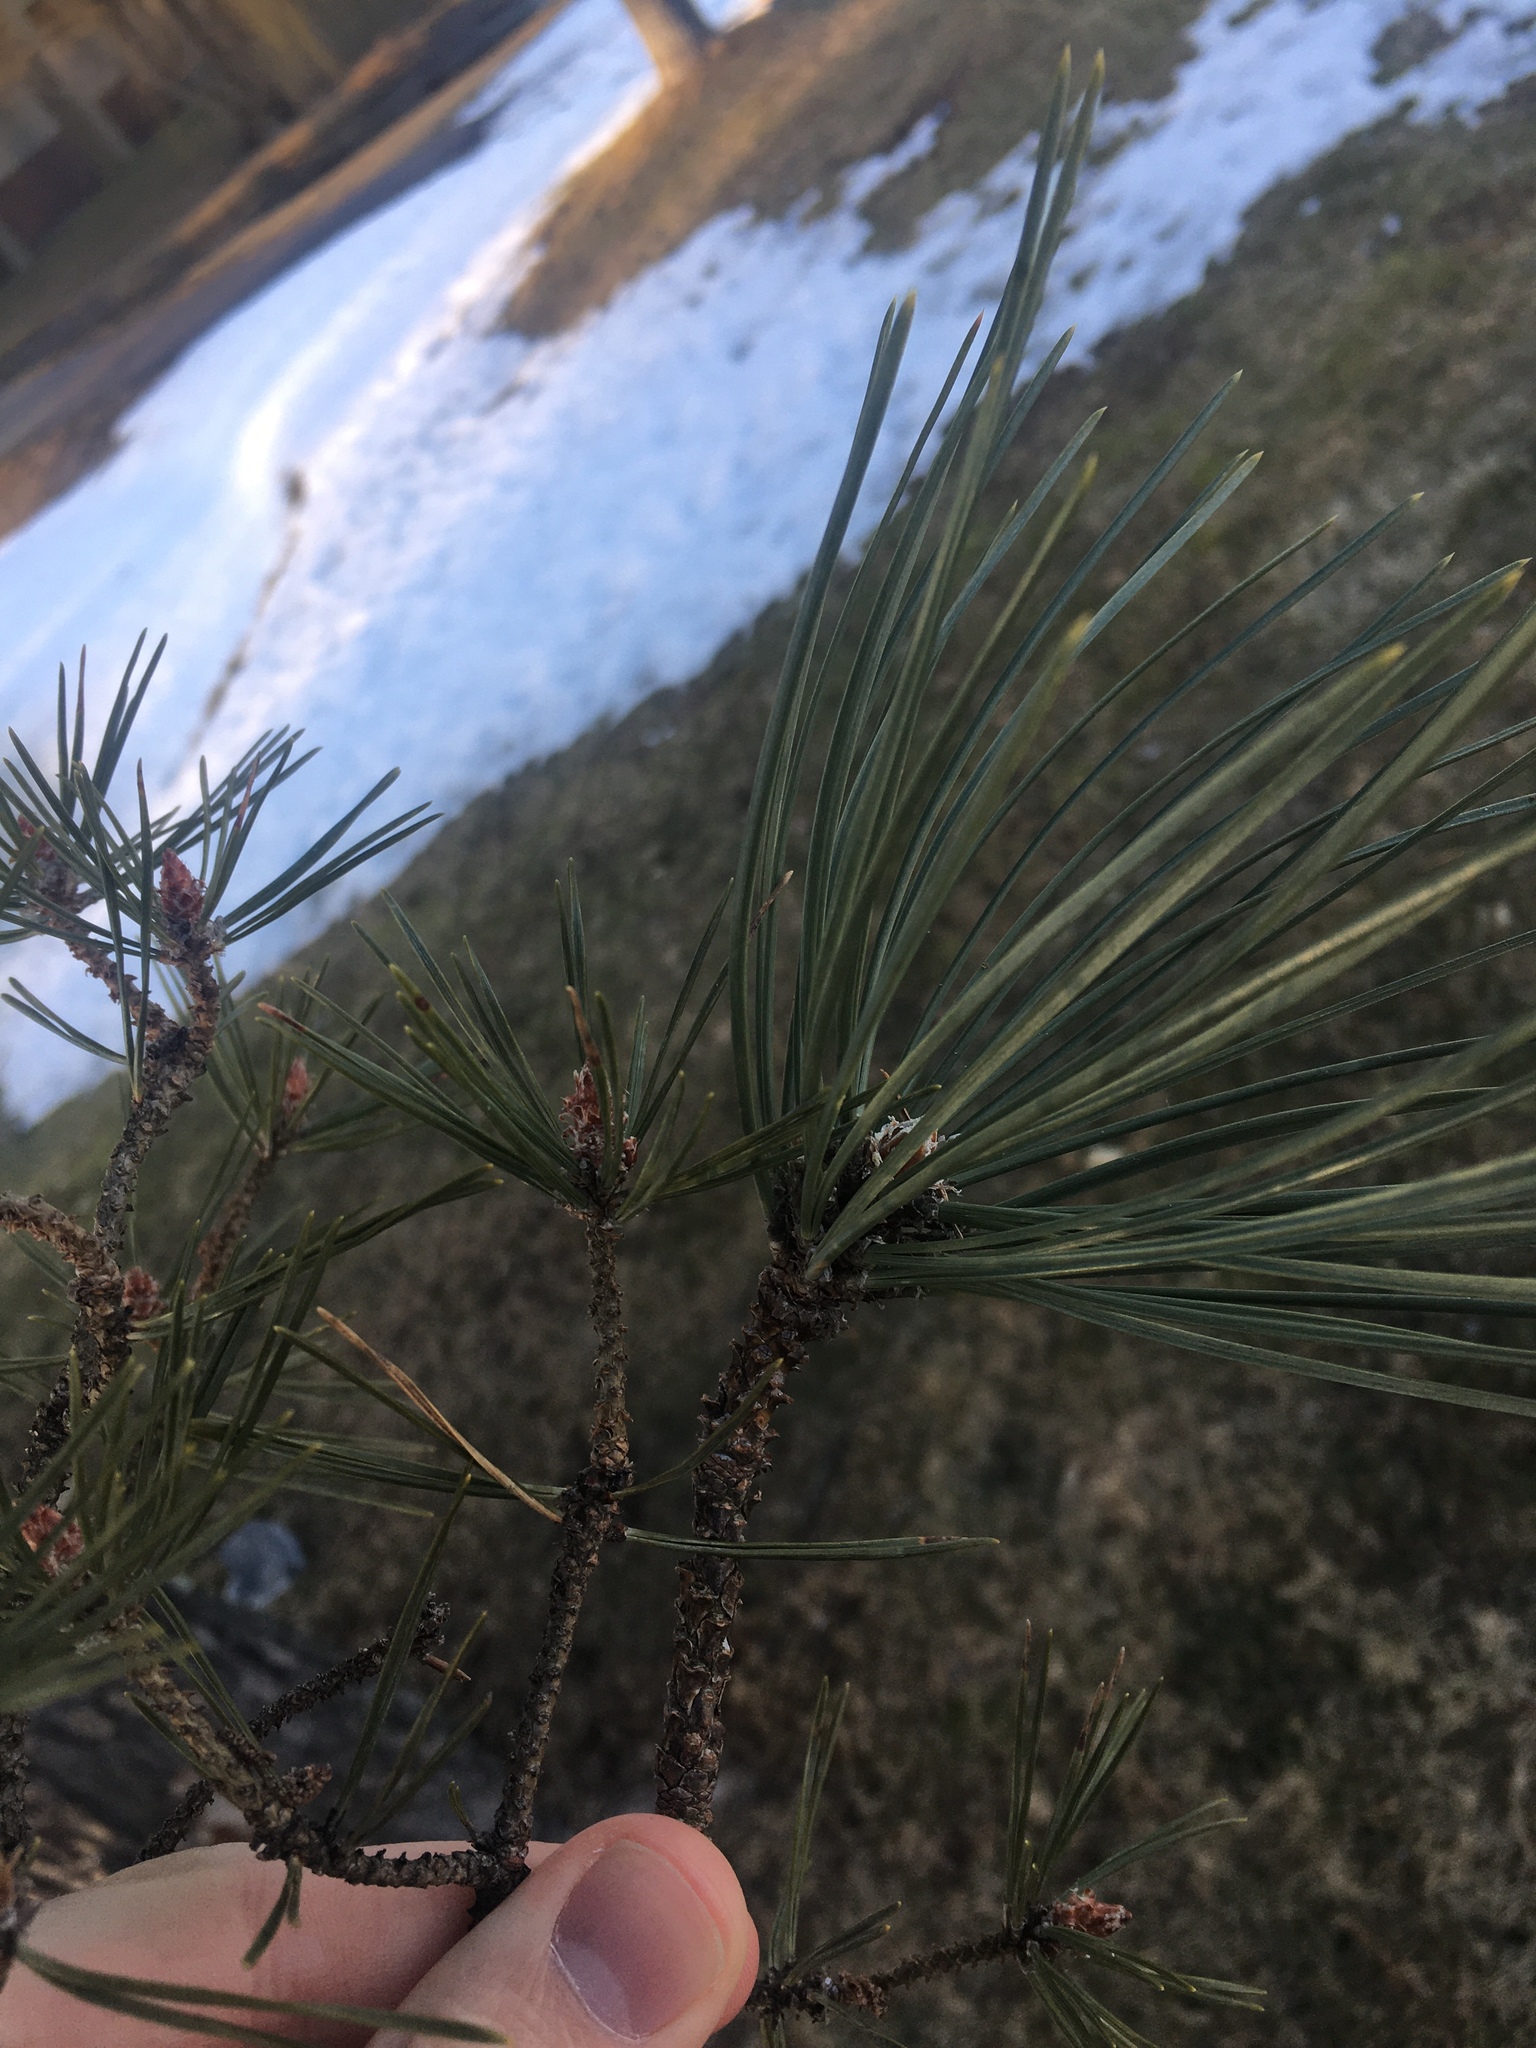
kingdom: Plantae
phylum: Tracheophyta
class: Pinopsida
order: Pinales
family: Pinaceae
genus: Pinus
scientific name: Pinus sylvestris
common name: Scots pine
